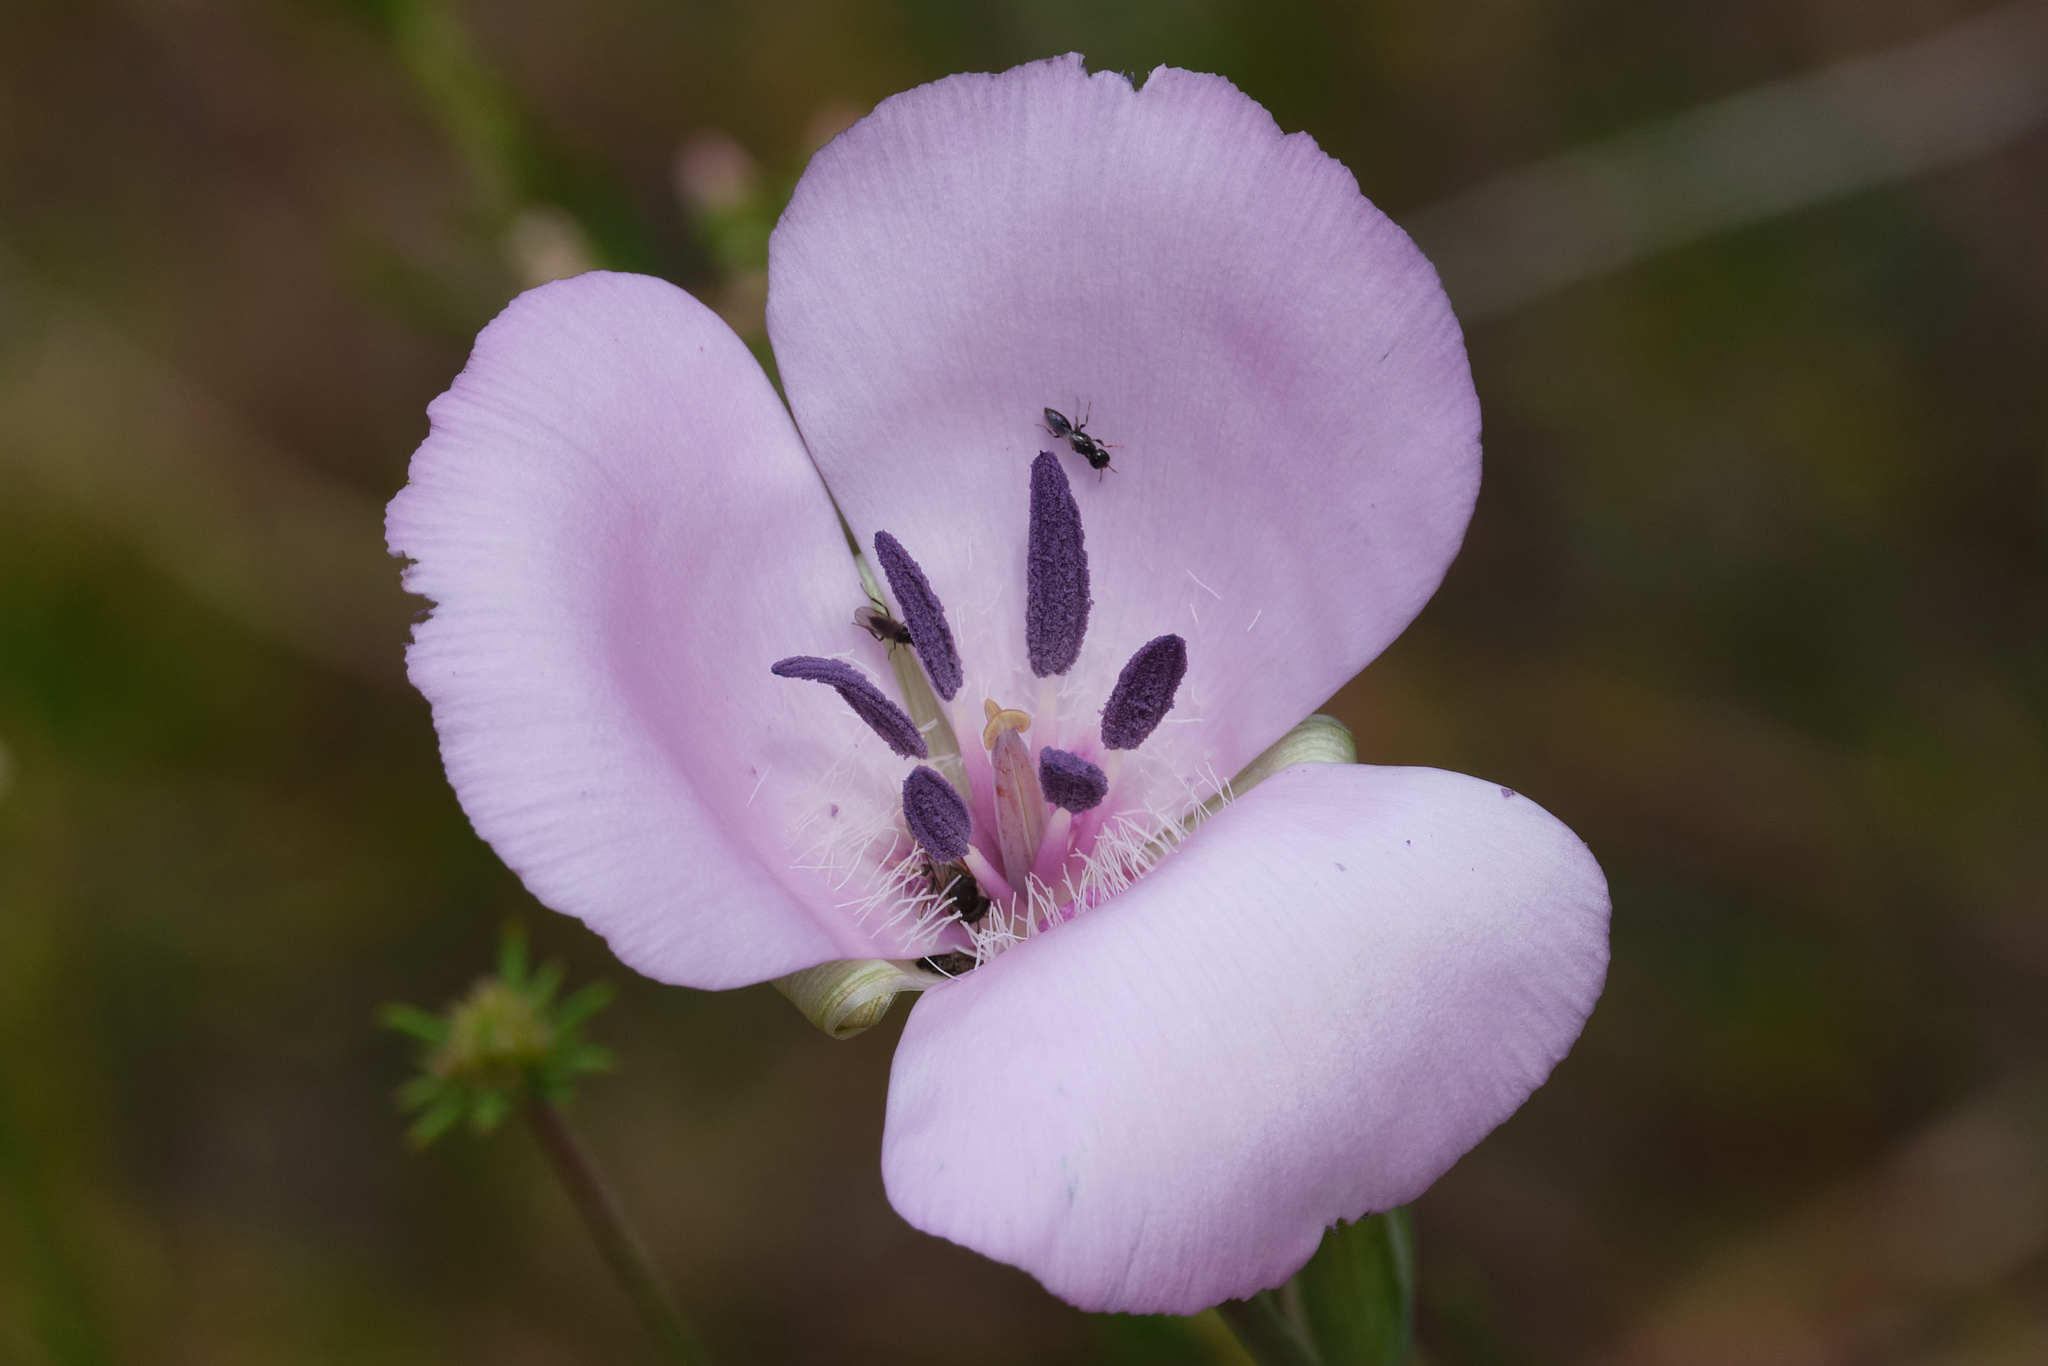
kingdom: Plantae
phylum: Tracheophyta
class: Liliopsida
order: Liliales
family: Liliaceae
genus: Calochortus
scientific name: Calochortus splendens
